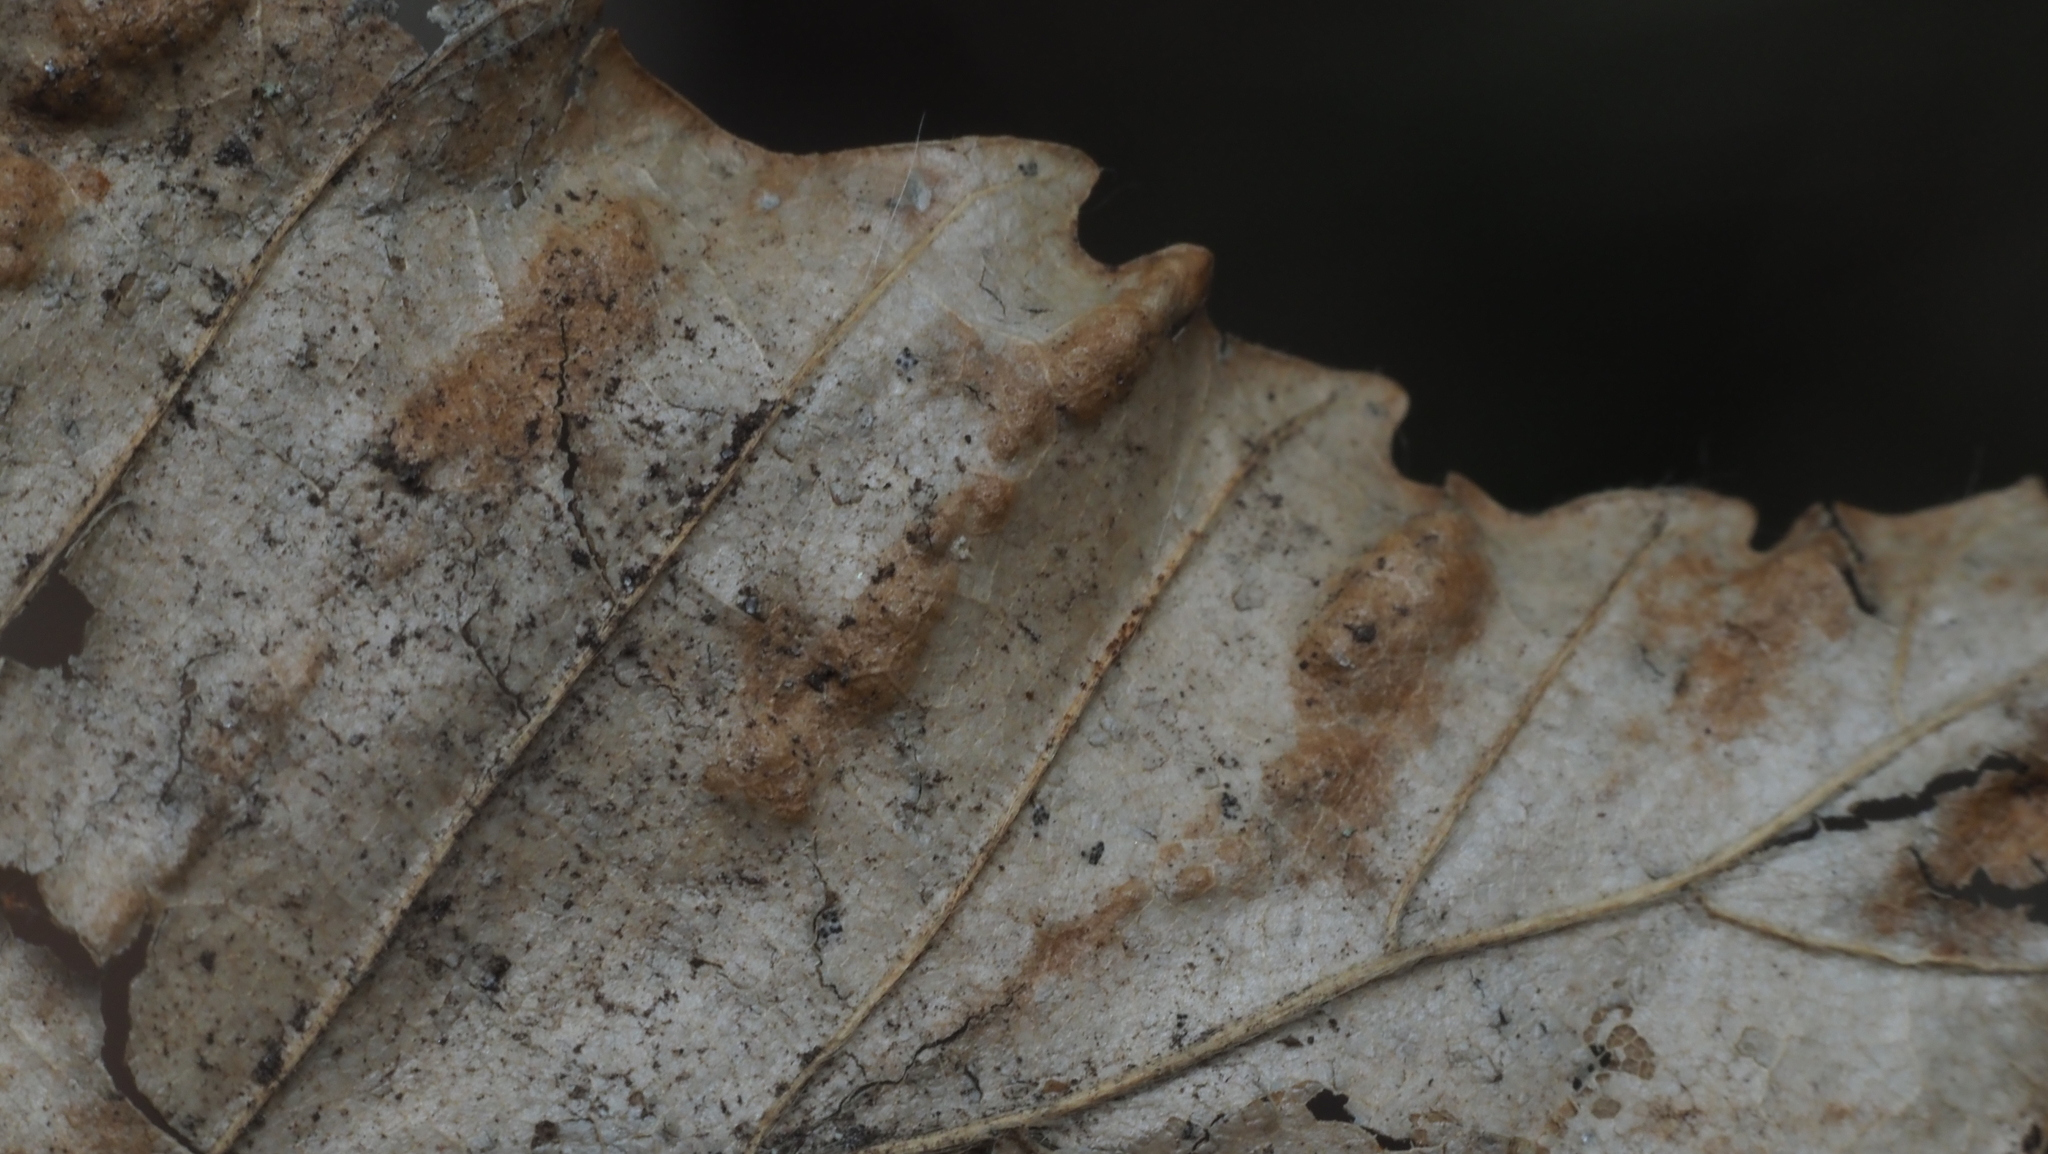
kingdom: Animalia
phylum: Arthropoda
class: Arachnida
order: Trombidiformes
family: Eriophyidae
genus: Acalitus
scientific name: Acalitus
